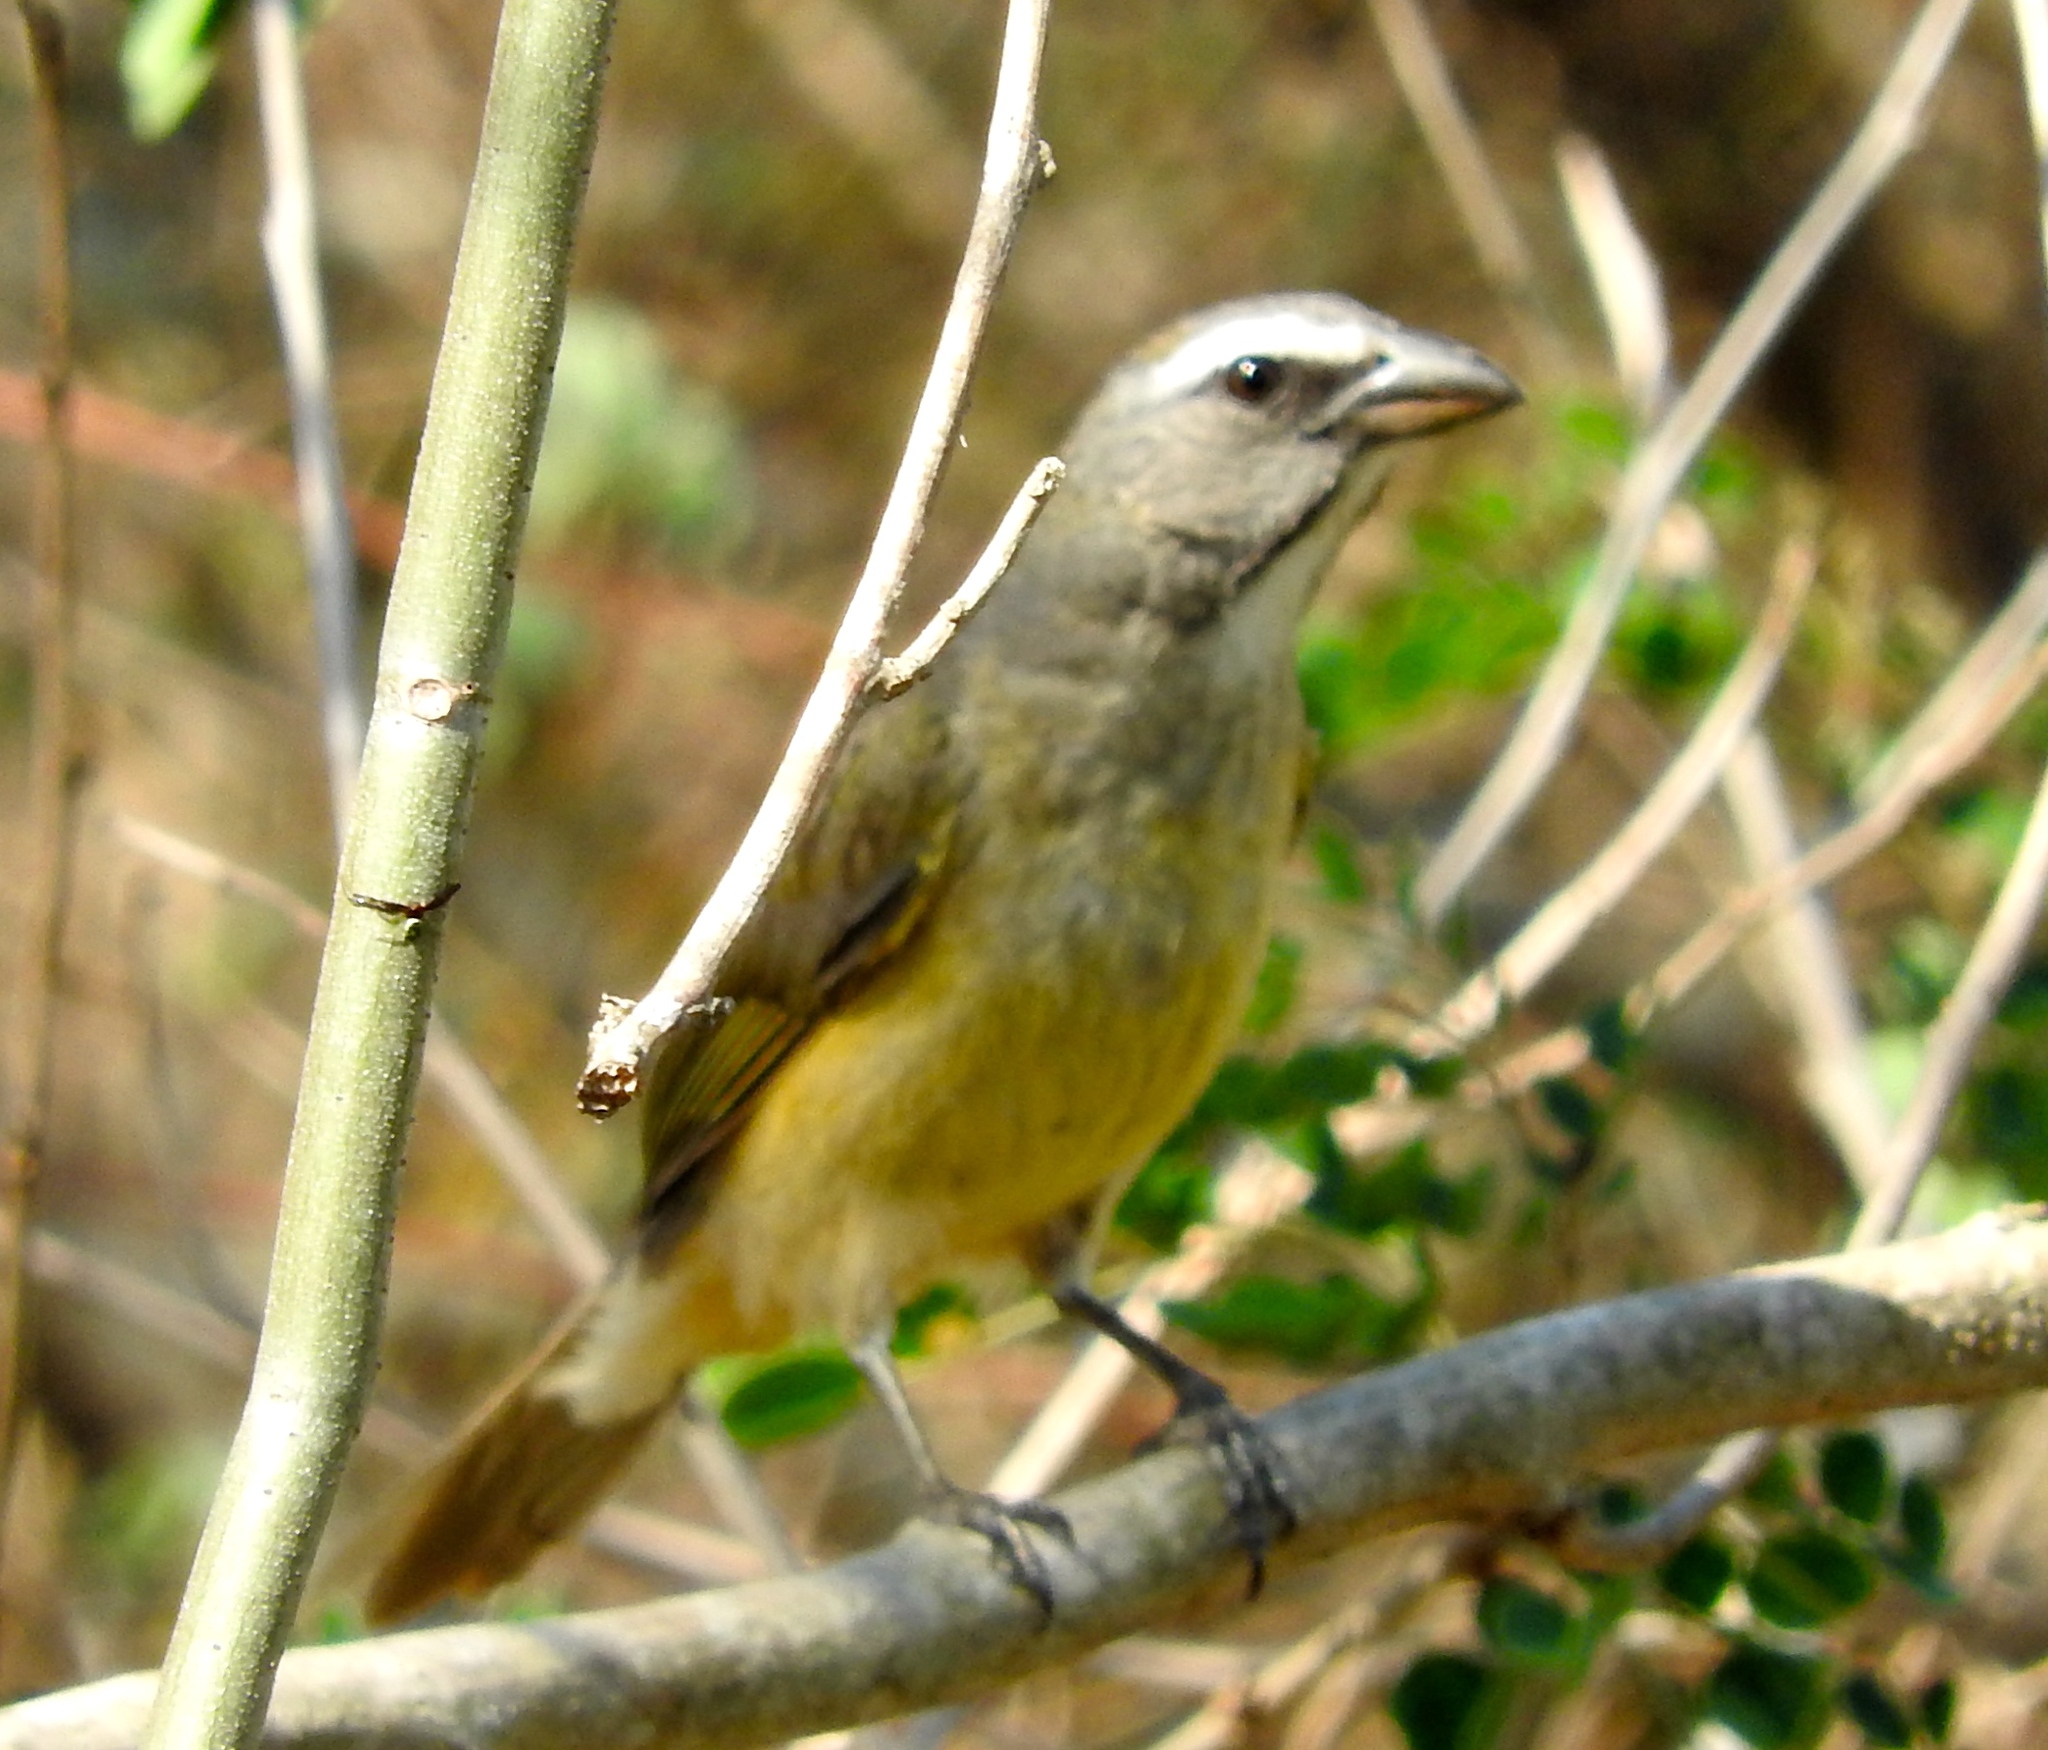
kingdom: Animalia
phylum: Chordata
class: Aves
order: Passeriformes
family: Thraupidae
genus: Saltator
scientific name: Saltator grandis
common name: Cinnamon-bellied saltator
